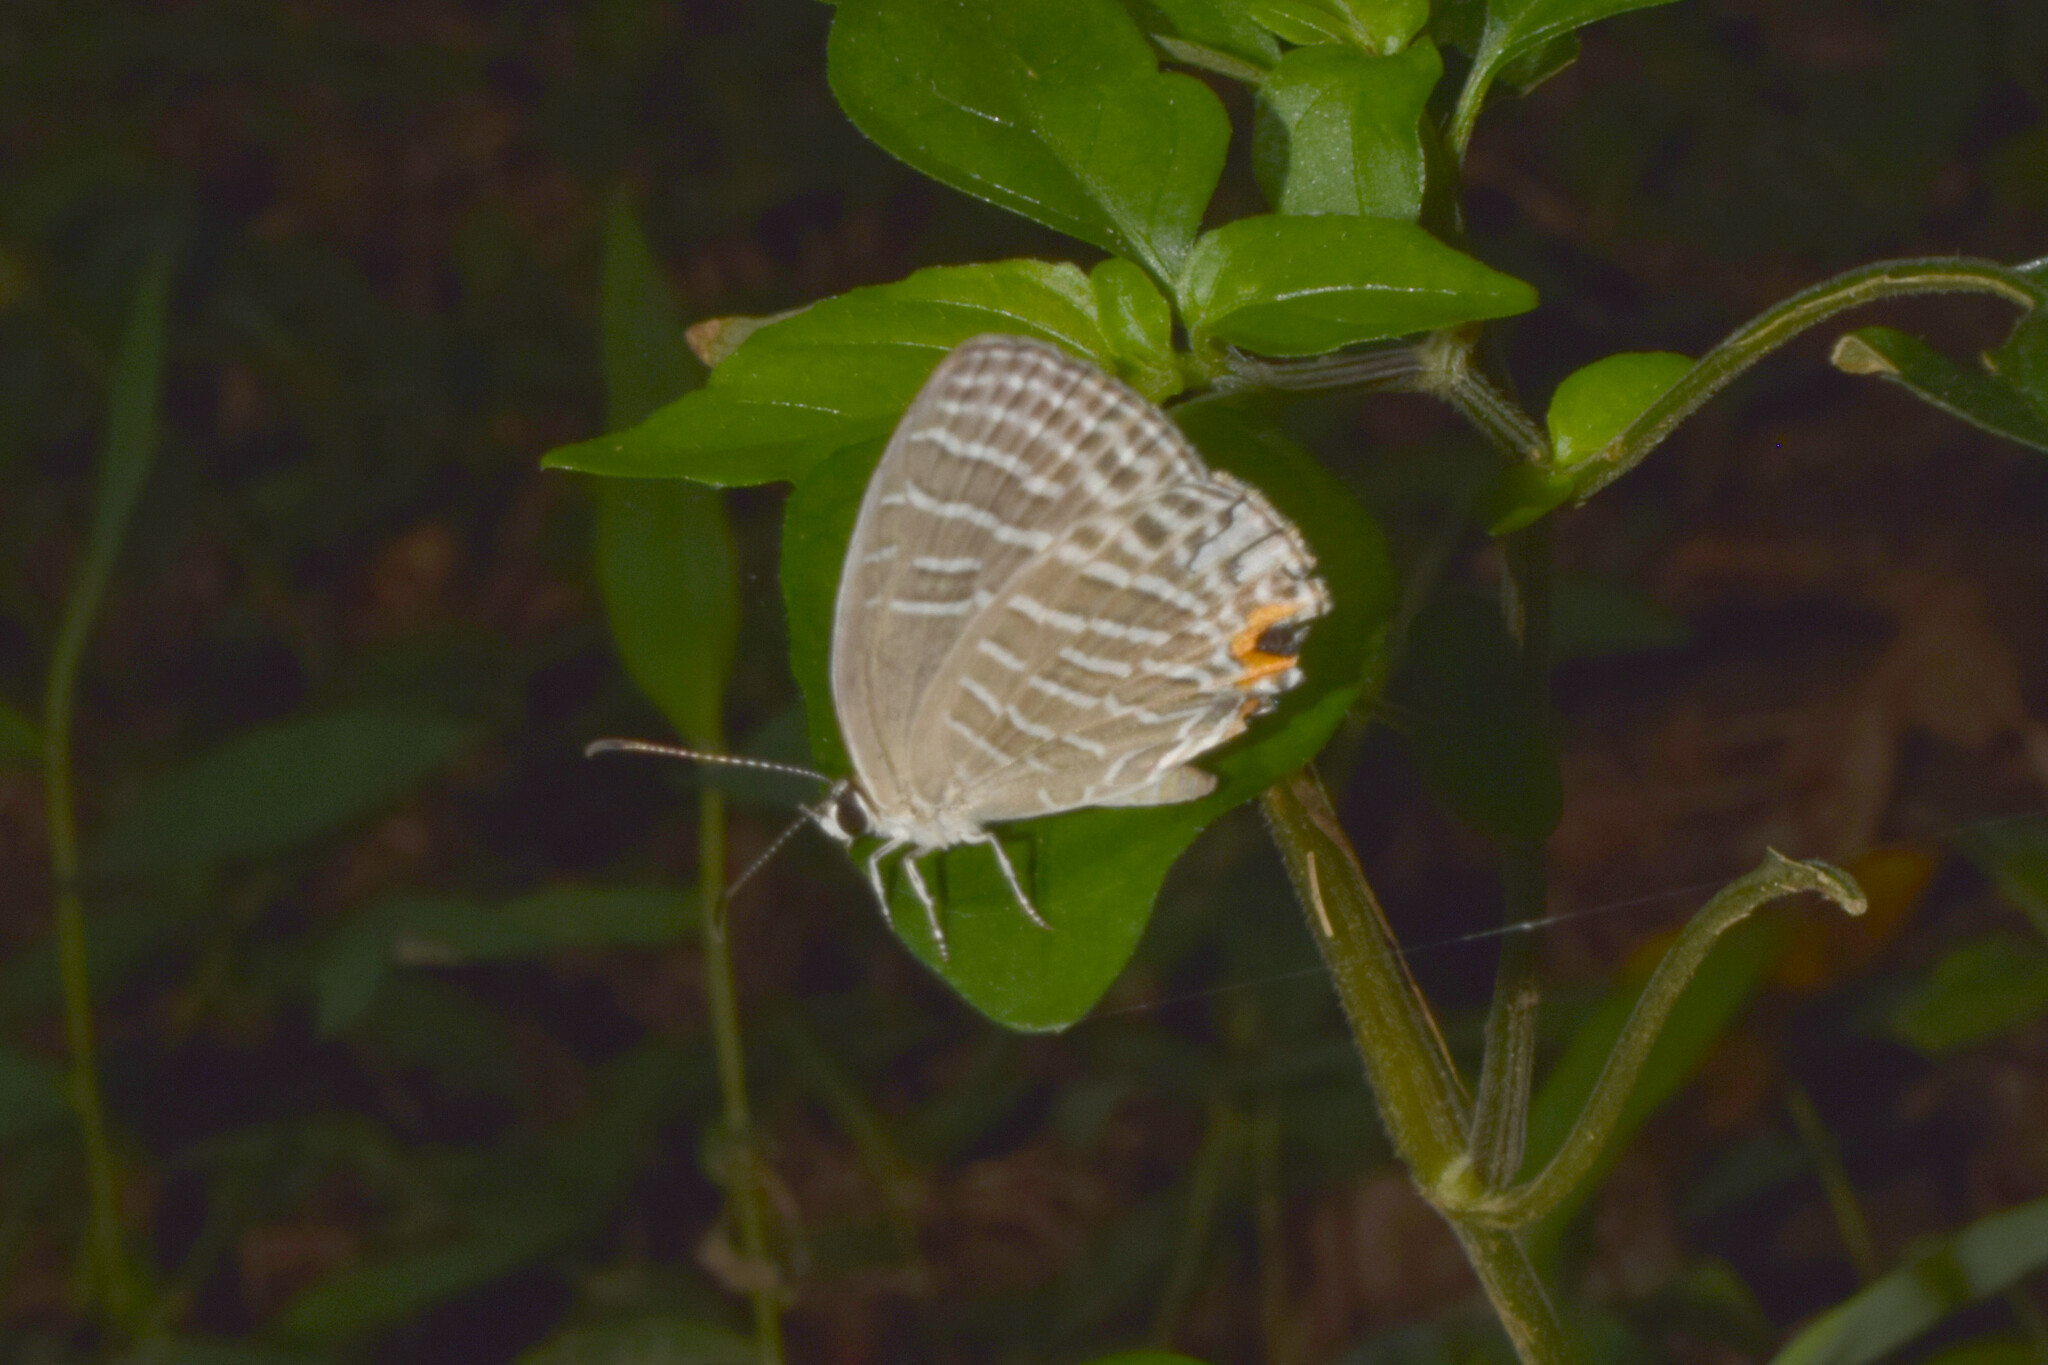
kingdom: Animalia
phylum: Arthropoda
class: Insecta
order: Lepidoptera
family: Lycaenidae
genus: Jamides
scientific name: Jamides celeno
